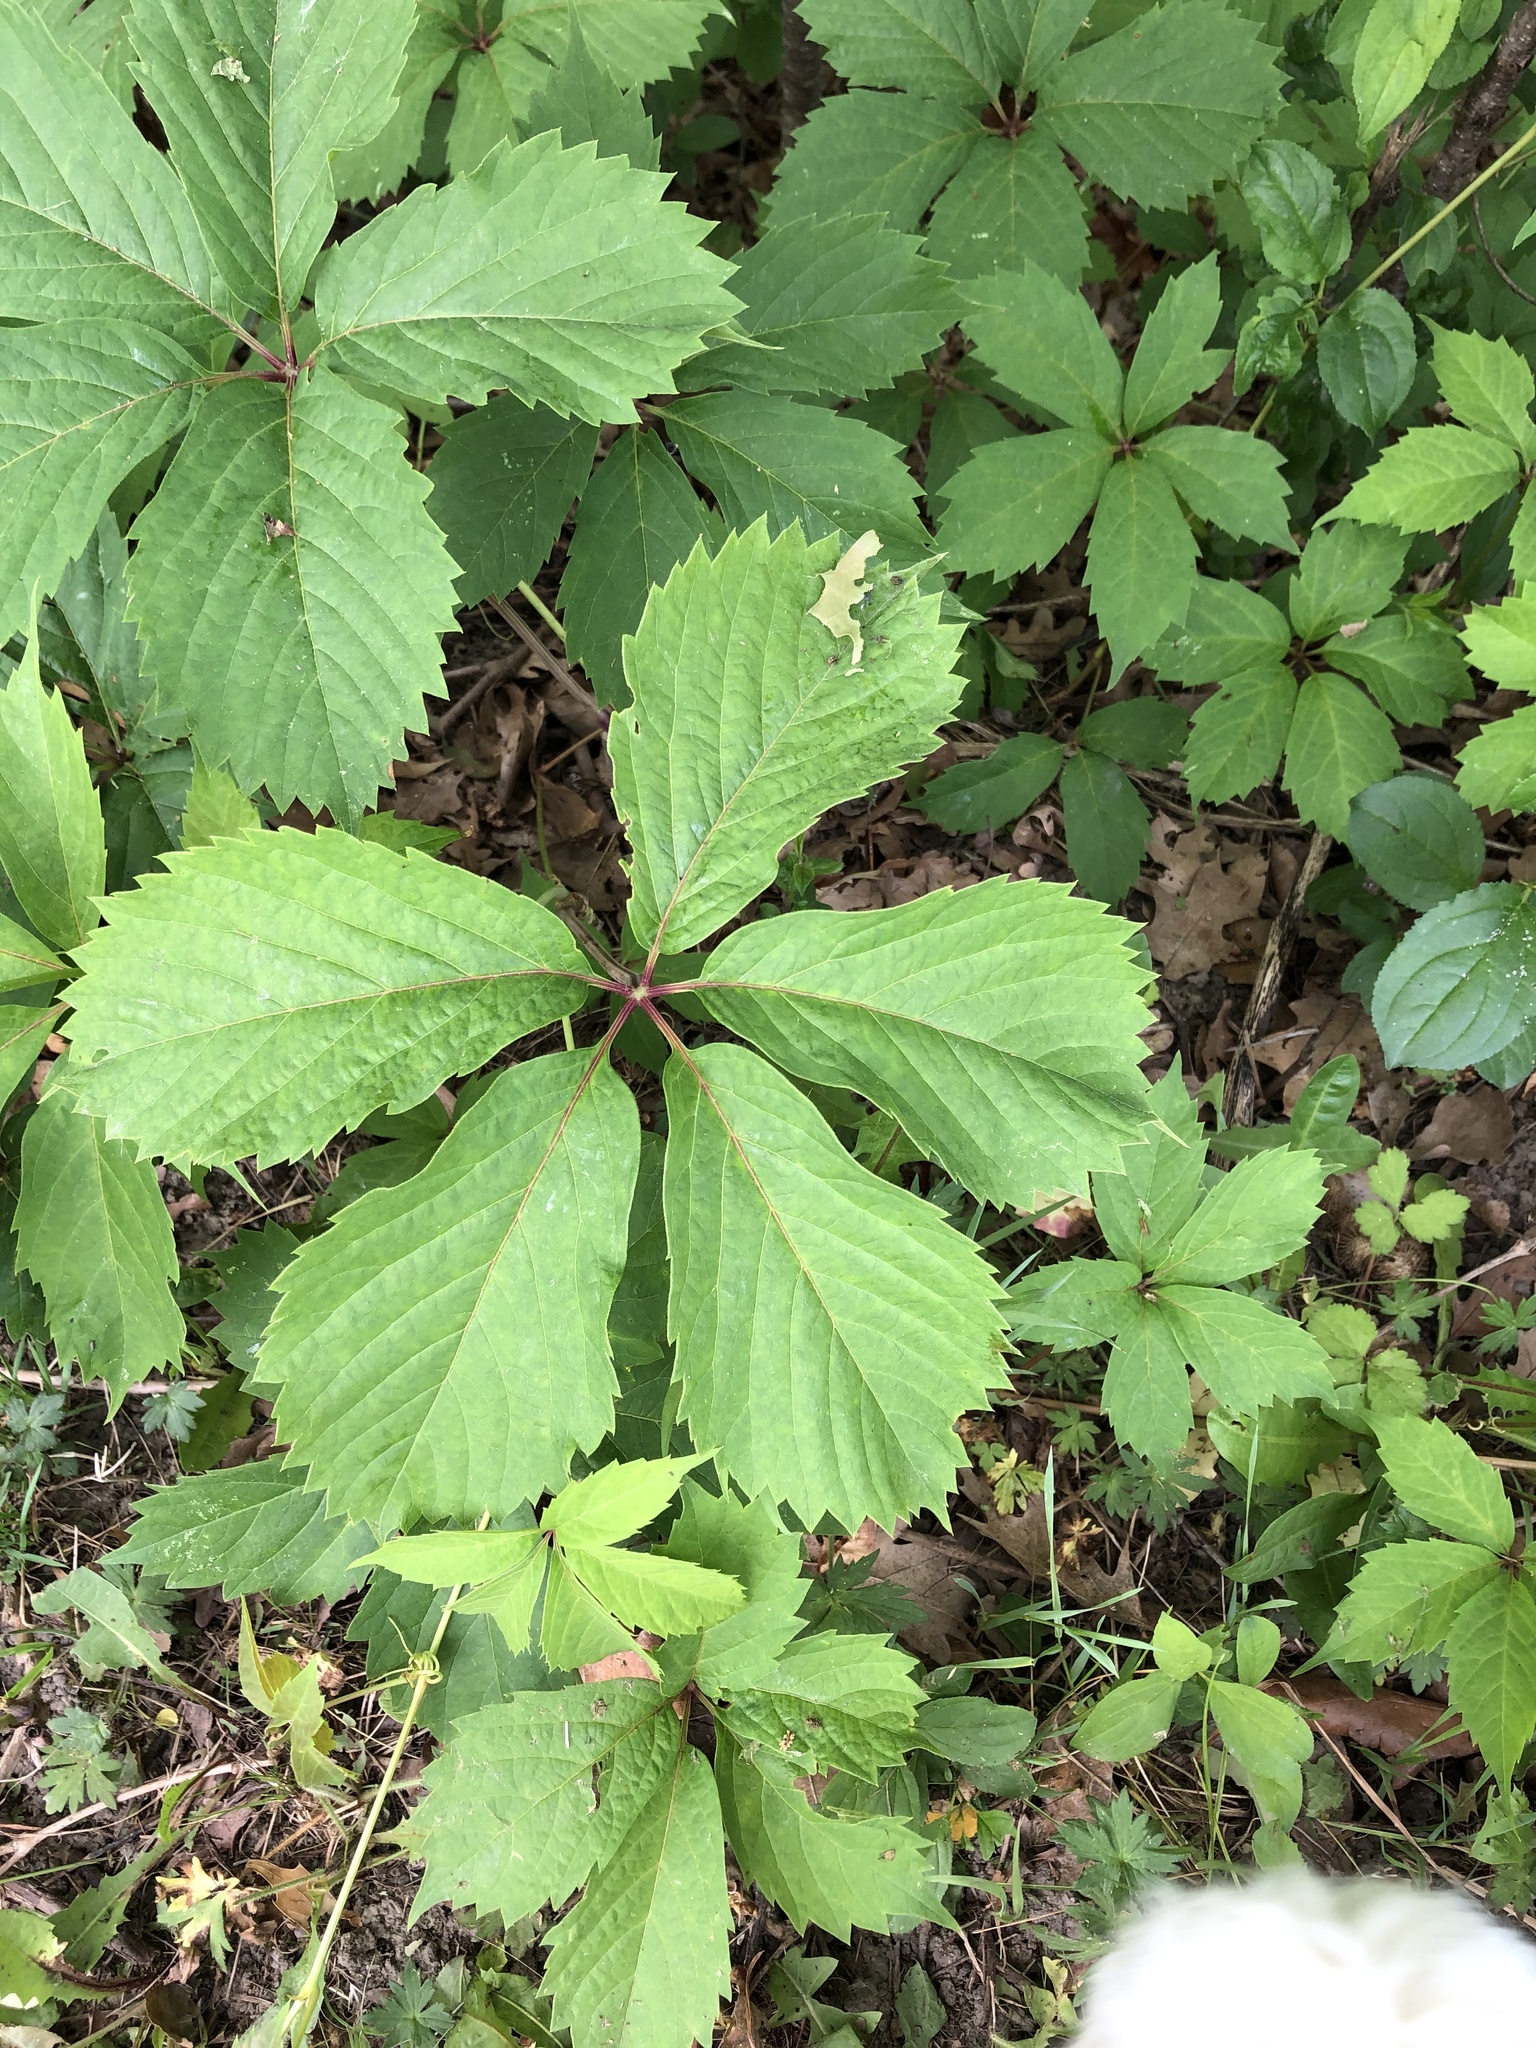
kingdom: Plantae
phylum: Tracheophyta
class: Magnoliopsida
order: Vitales
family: Vitaceae
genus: Parthenocissus
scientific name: Parthenocissus quinquefolia
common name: Virginia-creeper
